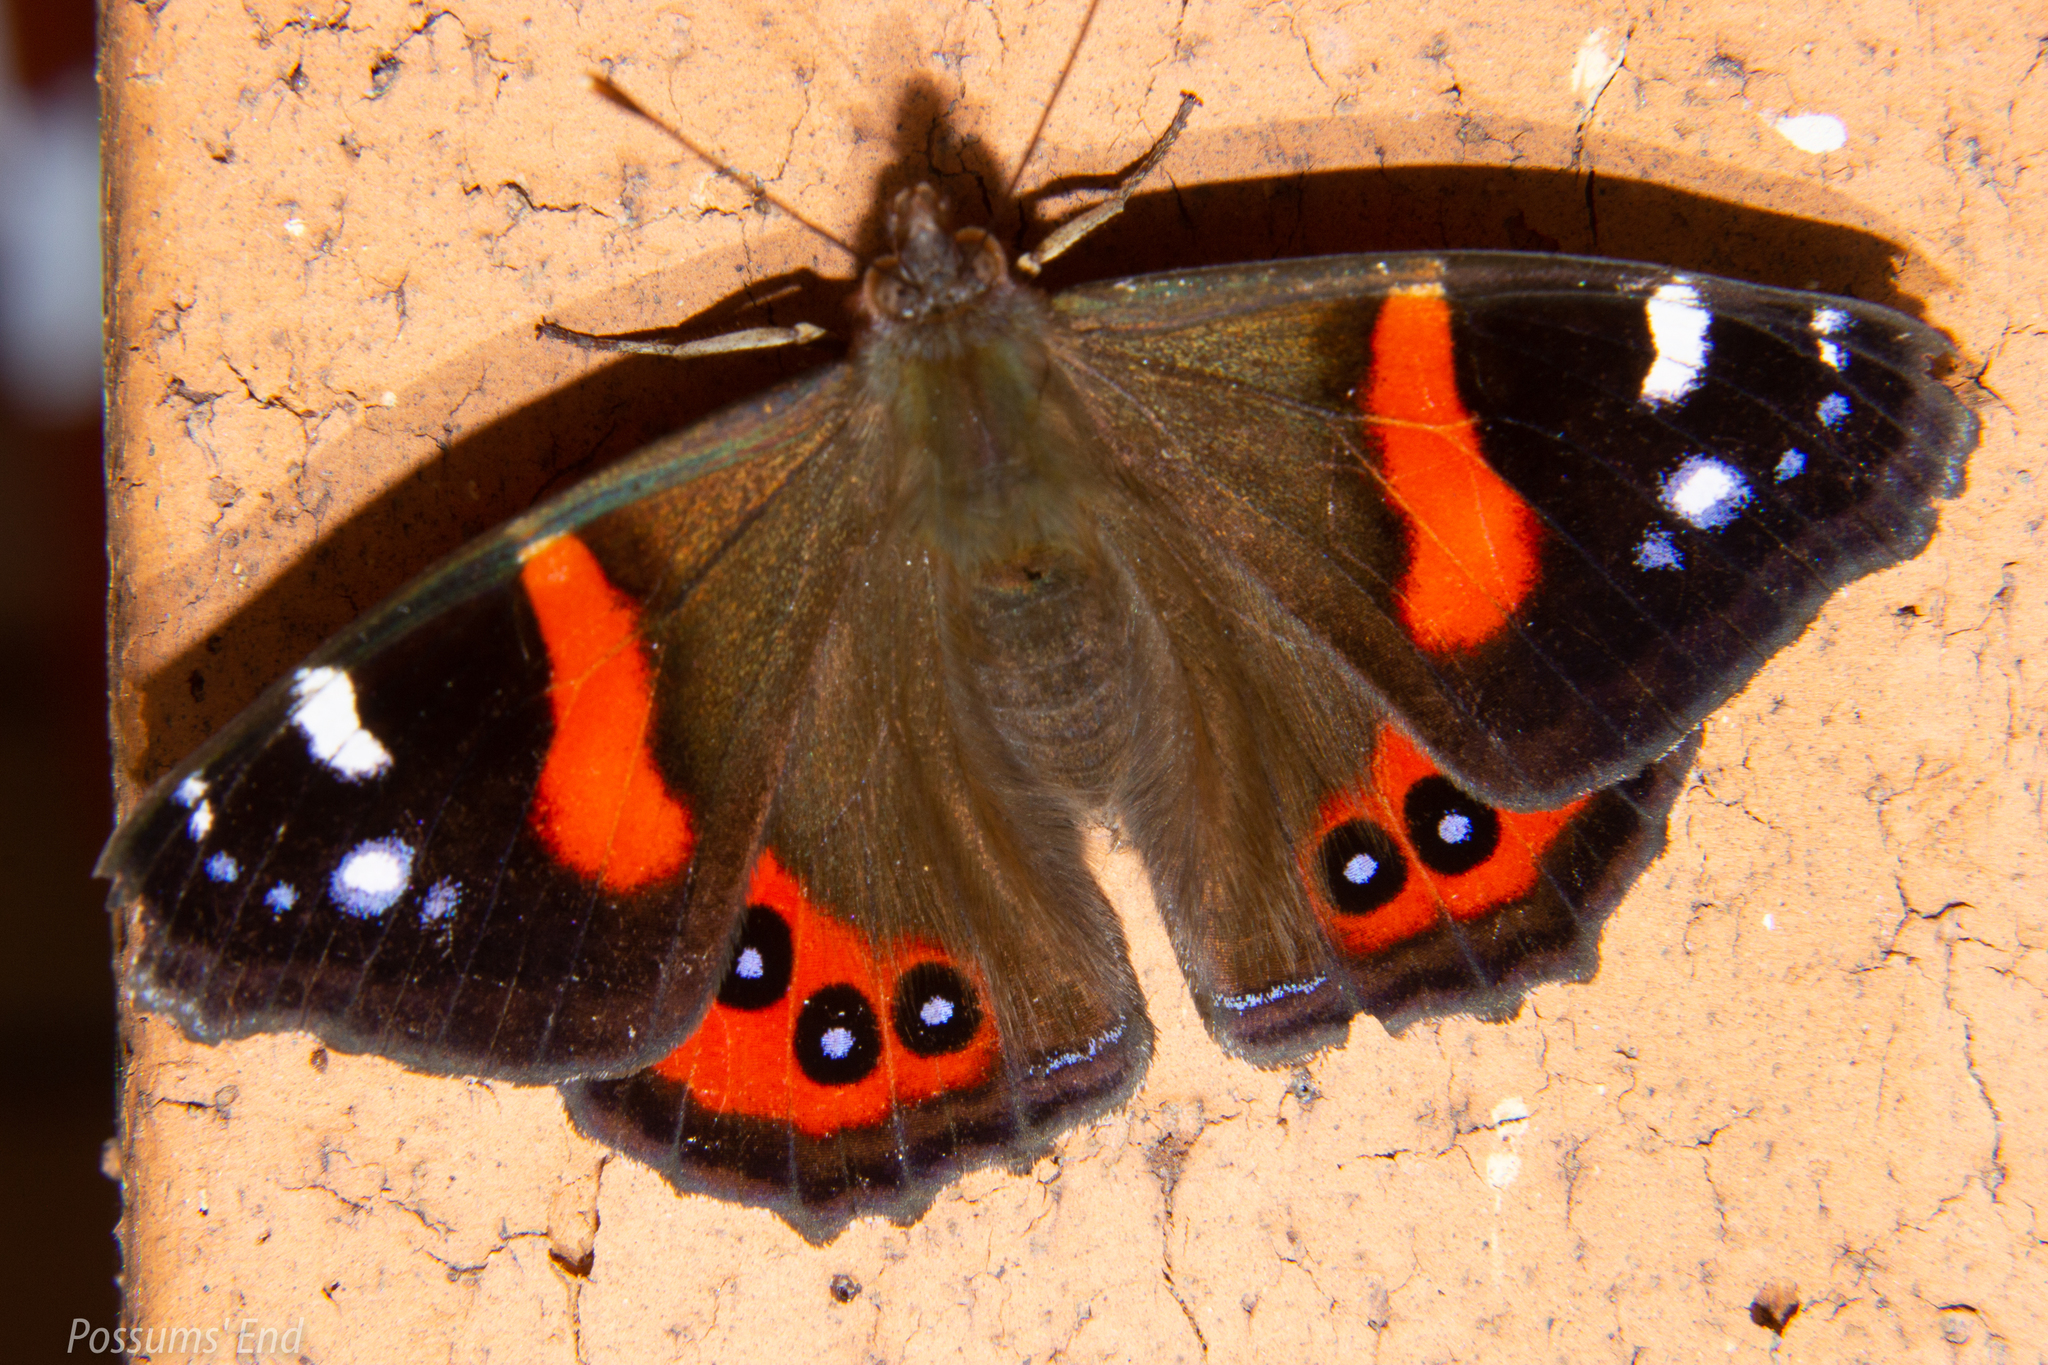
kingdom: Animalia
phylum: Arthropoda
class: Insecta
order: Lepidoptera
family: Nymphalidae
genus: Vanessa
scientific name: Vanessa gonerilla
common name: New zealand red admiral
